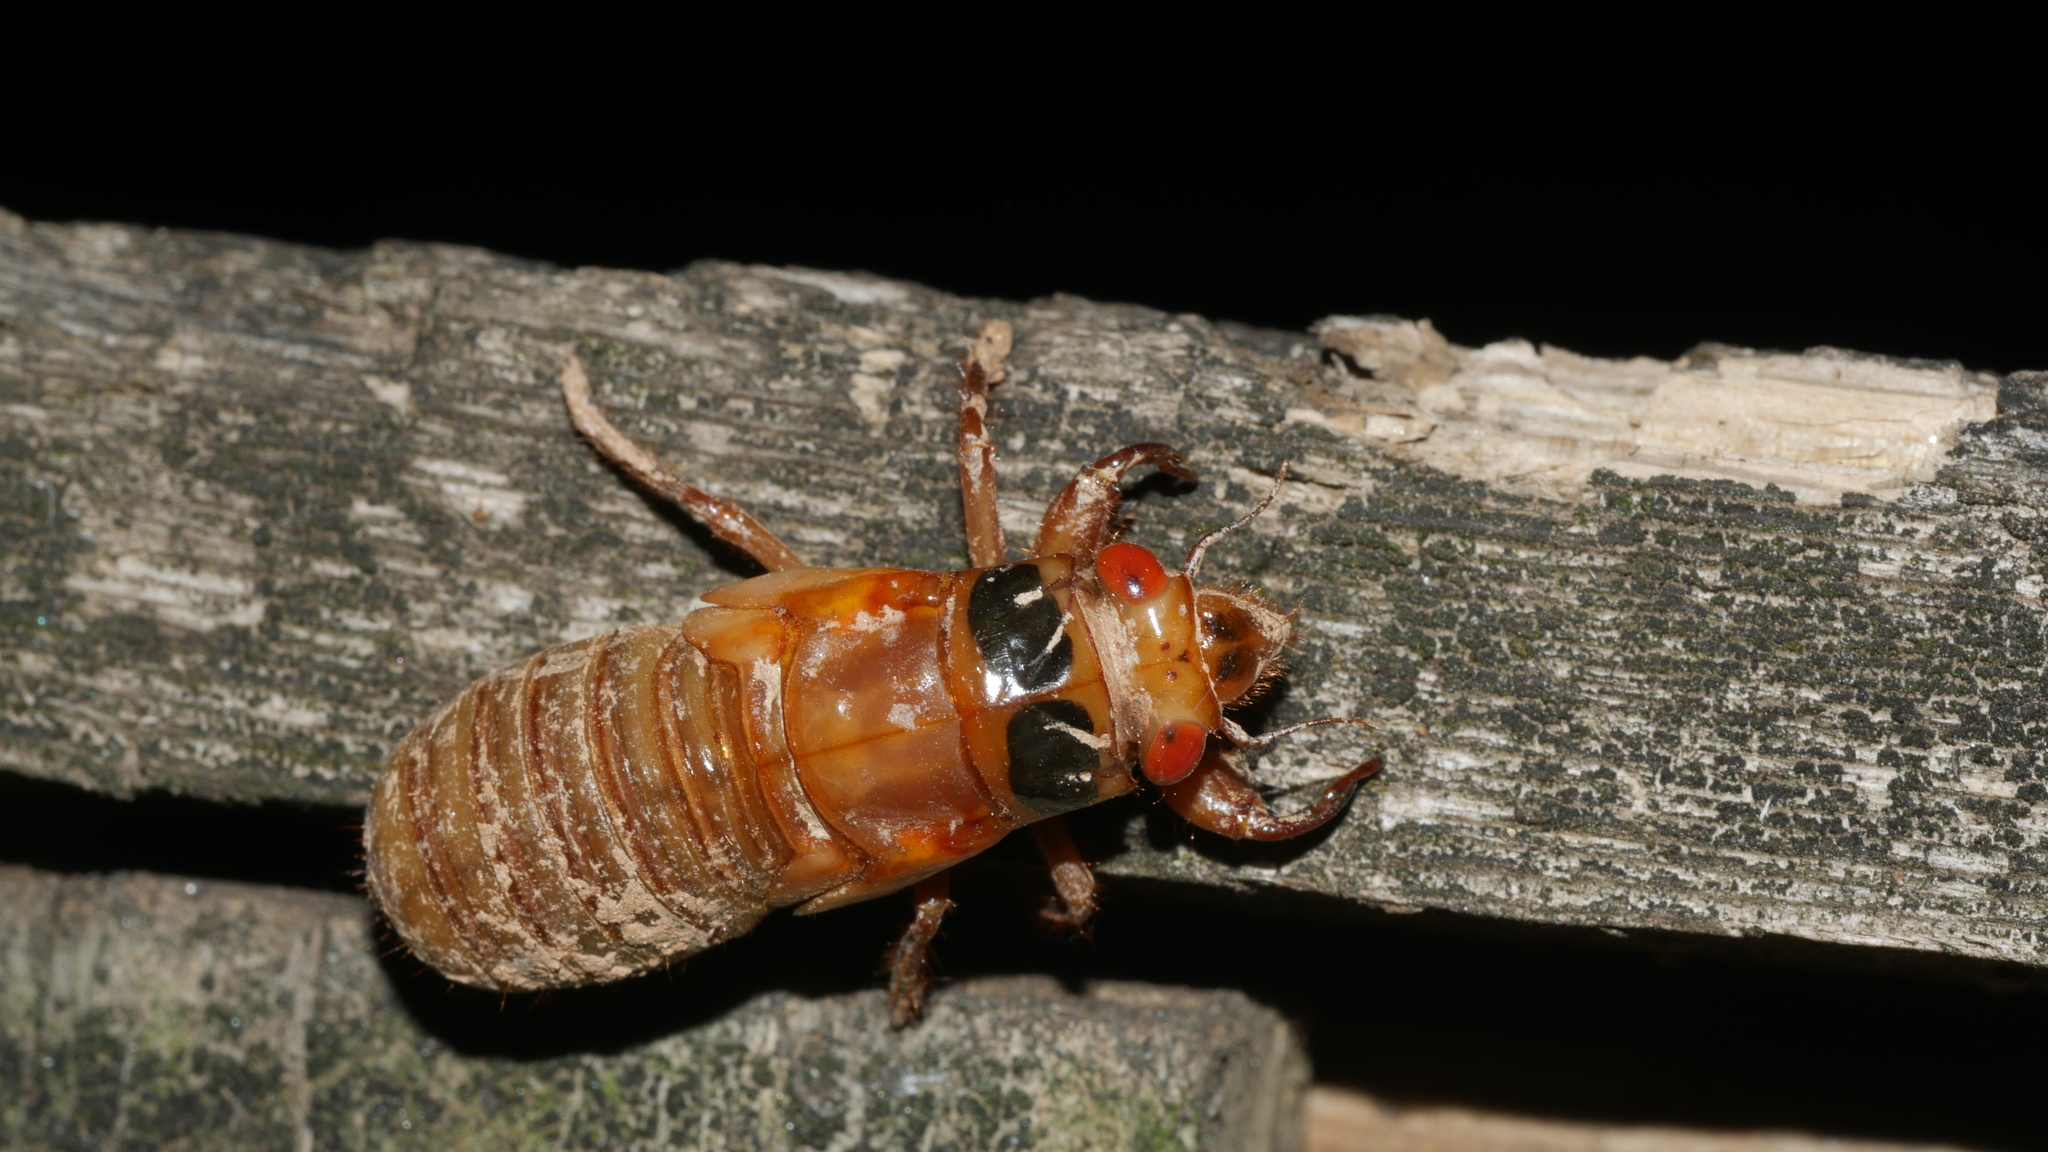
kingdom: Animalia
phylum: Arthropoda
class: Insecta
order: Hemiptera
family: Cicadidae
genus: Magicicada
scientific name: Magicicada
